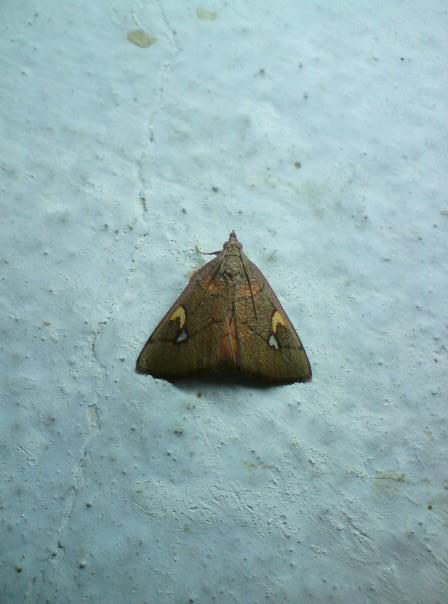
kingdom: Animalia
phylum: Arthropoda
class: Insecta
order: Lepidoptera
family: Pyralidae
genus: Orybina
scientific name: Orybina plangonalis
